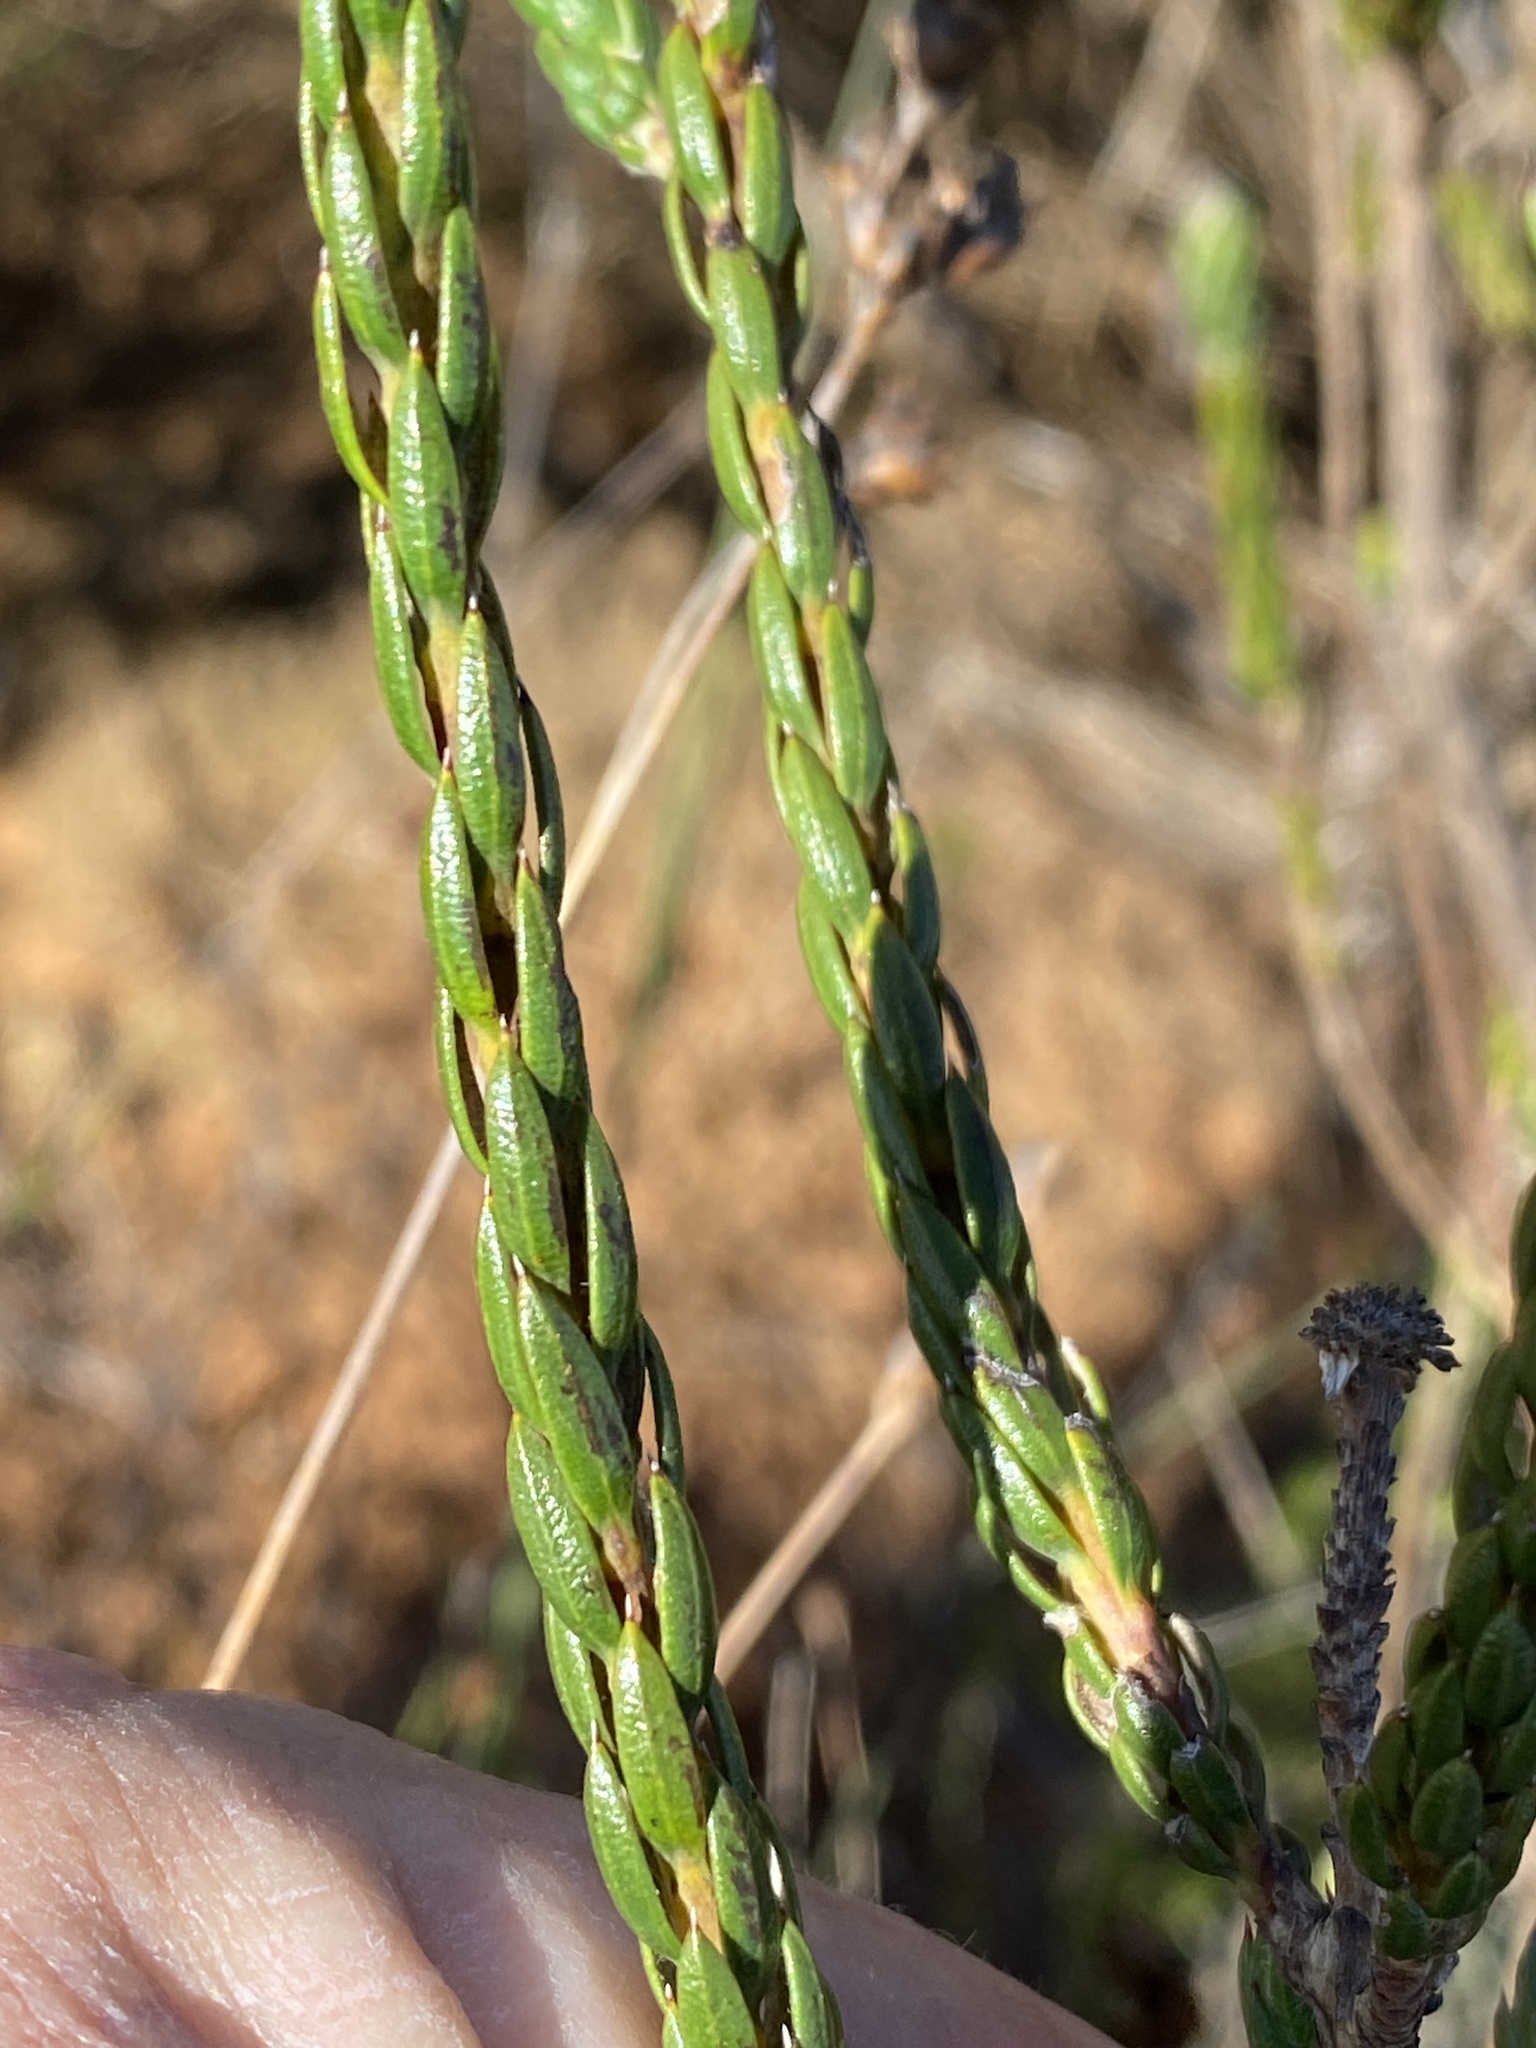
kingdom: Plantae
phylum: Tracheophyta
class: Magnoliopsida
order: Asterales
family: Asteraceae
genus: Stoebe
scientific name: Stoebe aethiopica
